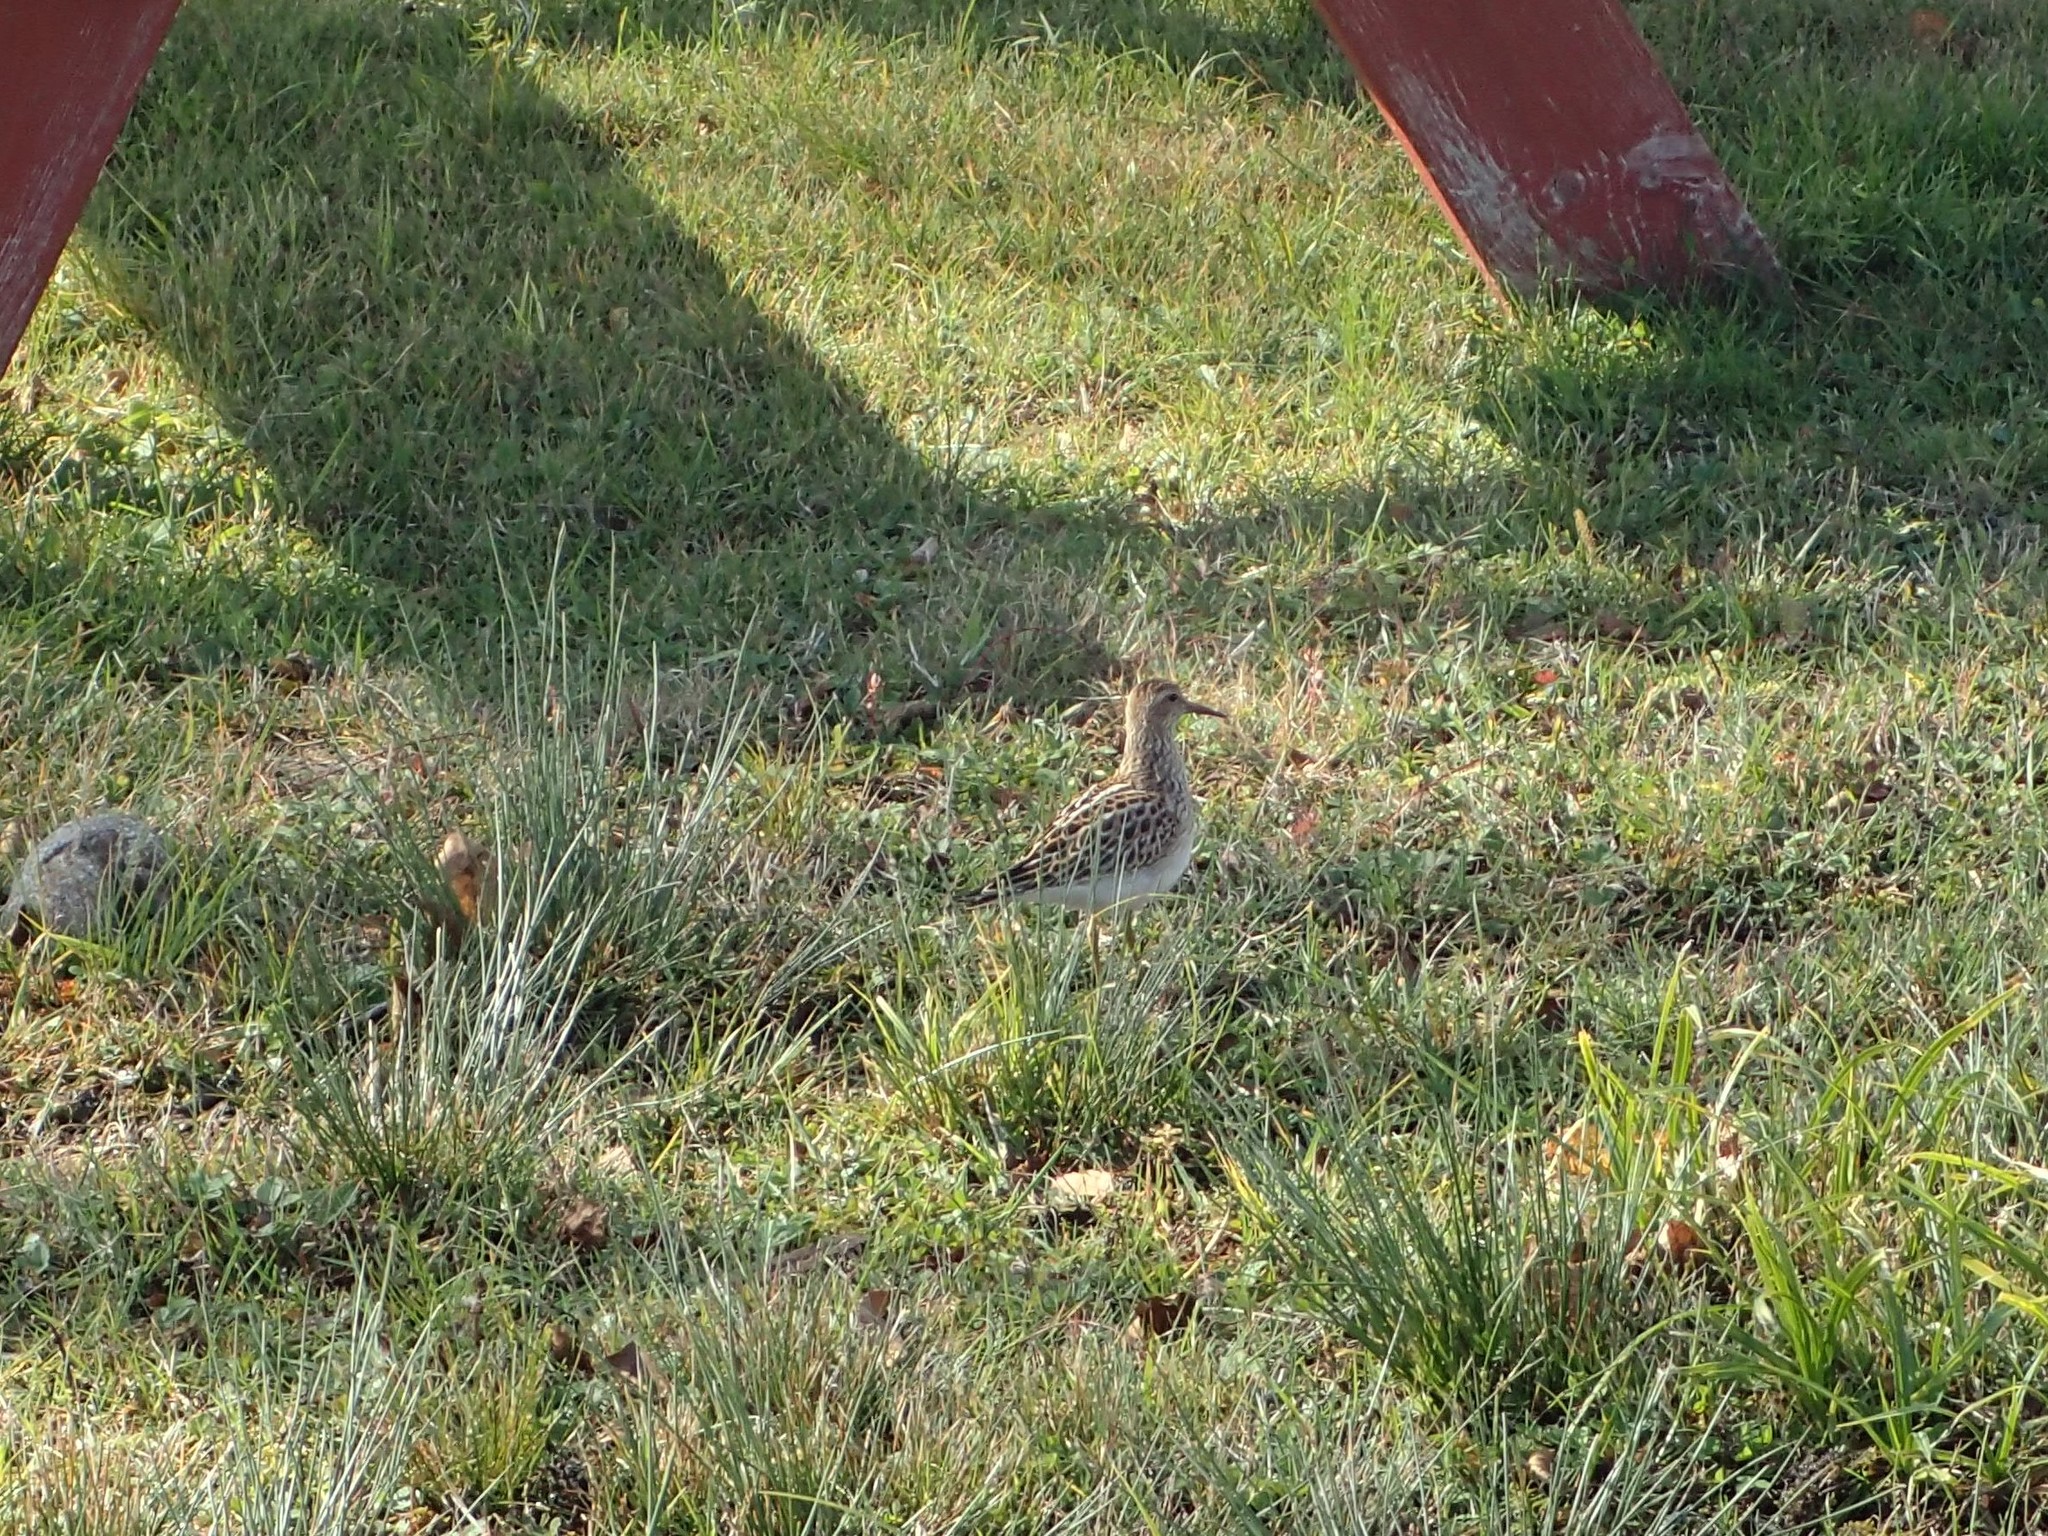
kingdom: Animalia
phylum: Chordata
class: Aves
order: Charadriiformes
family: Scolopacidae
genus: Calidris
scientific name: Calidris melanotos
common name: Pectoral sandpiper
